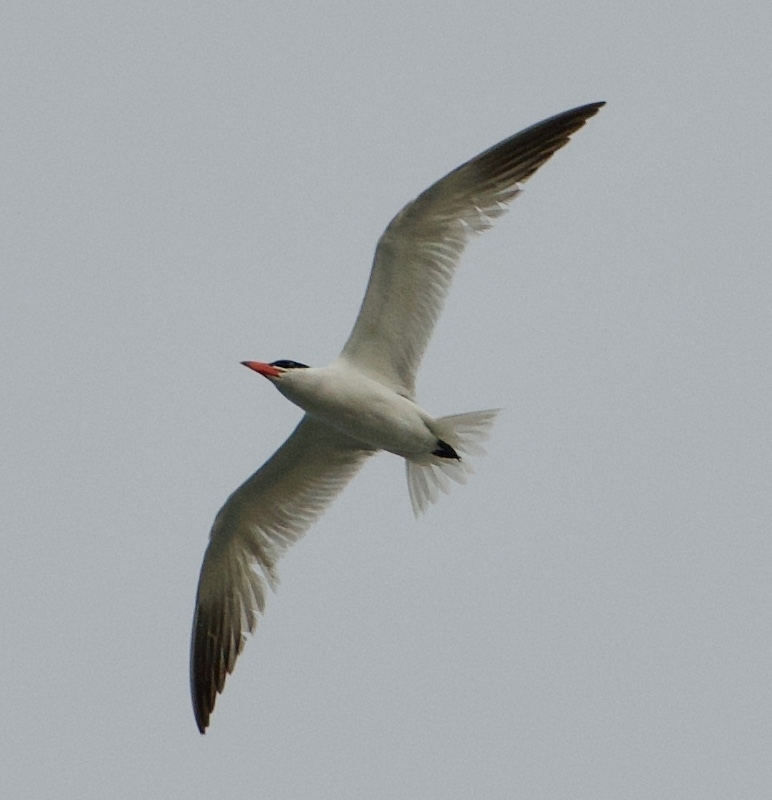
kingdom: Animalia
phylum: Chordata
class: Aves
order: Charadriiformes
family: Laridae
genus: Hydroprogne
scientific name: Hydroprogne caspia
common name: Caspian tern
